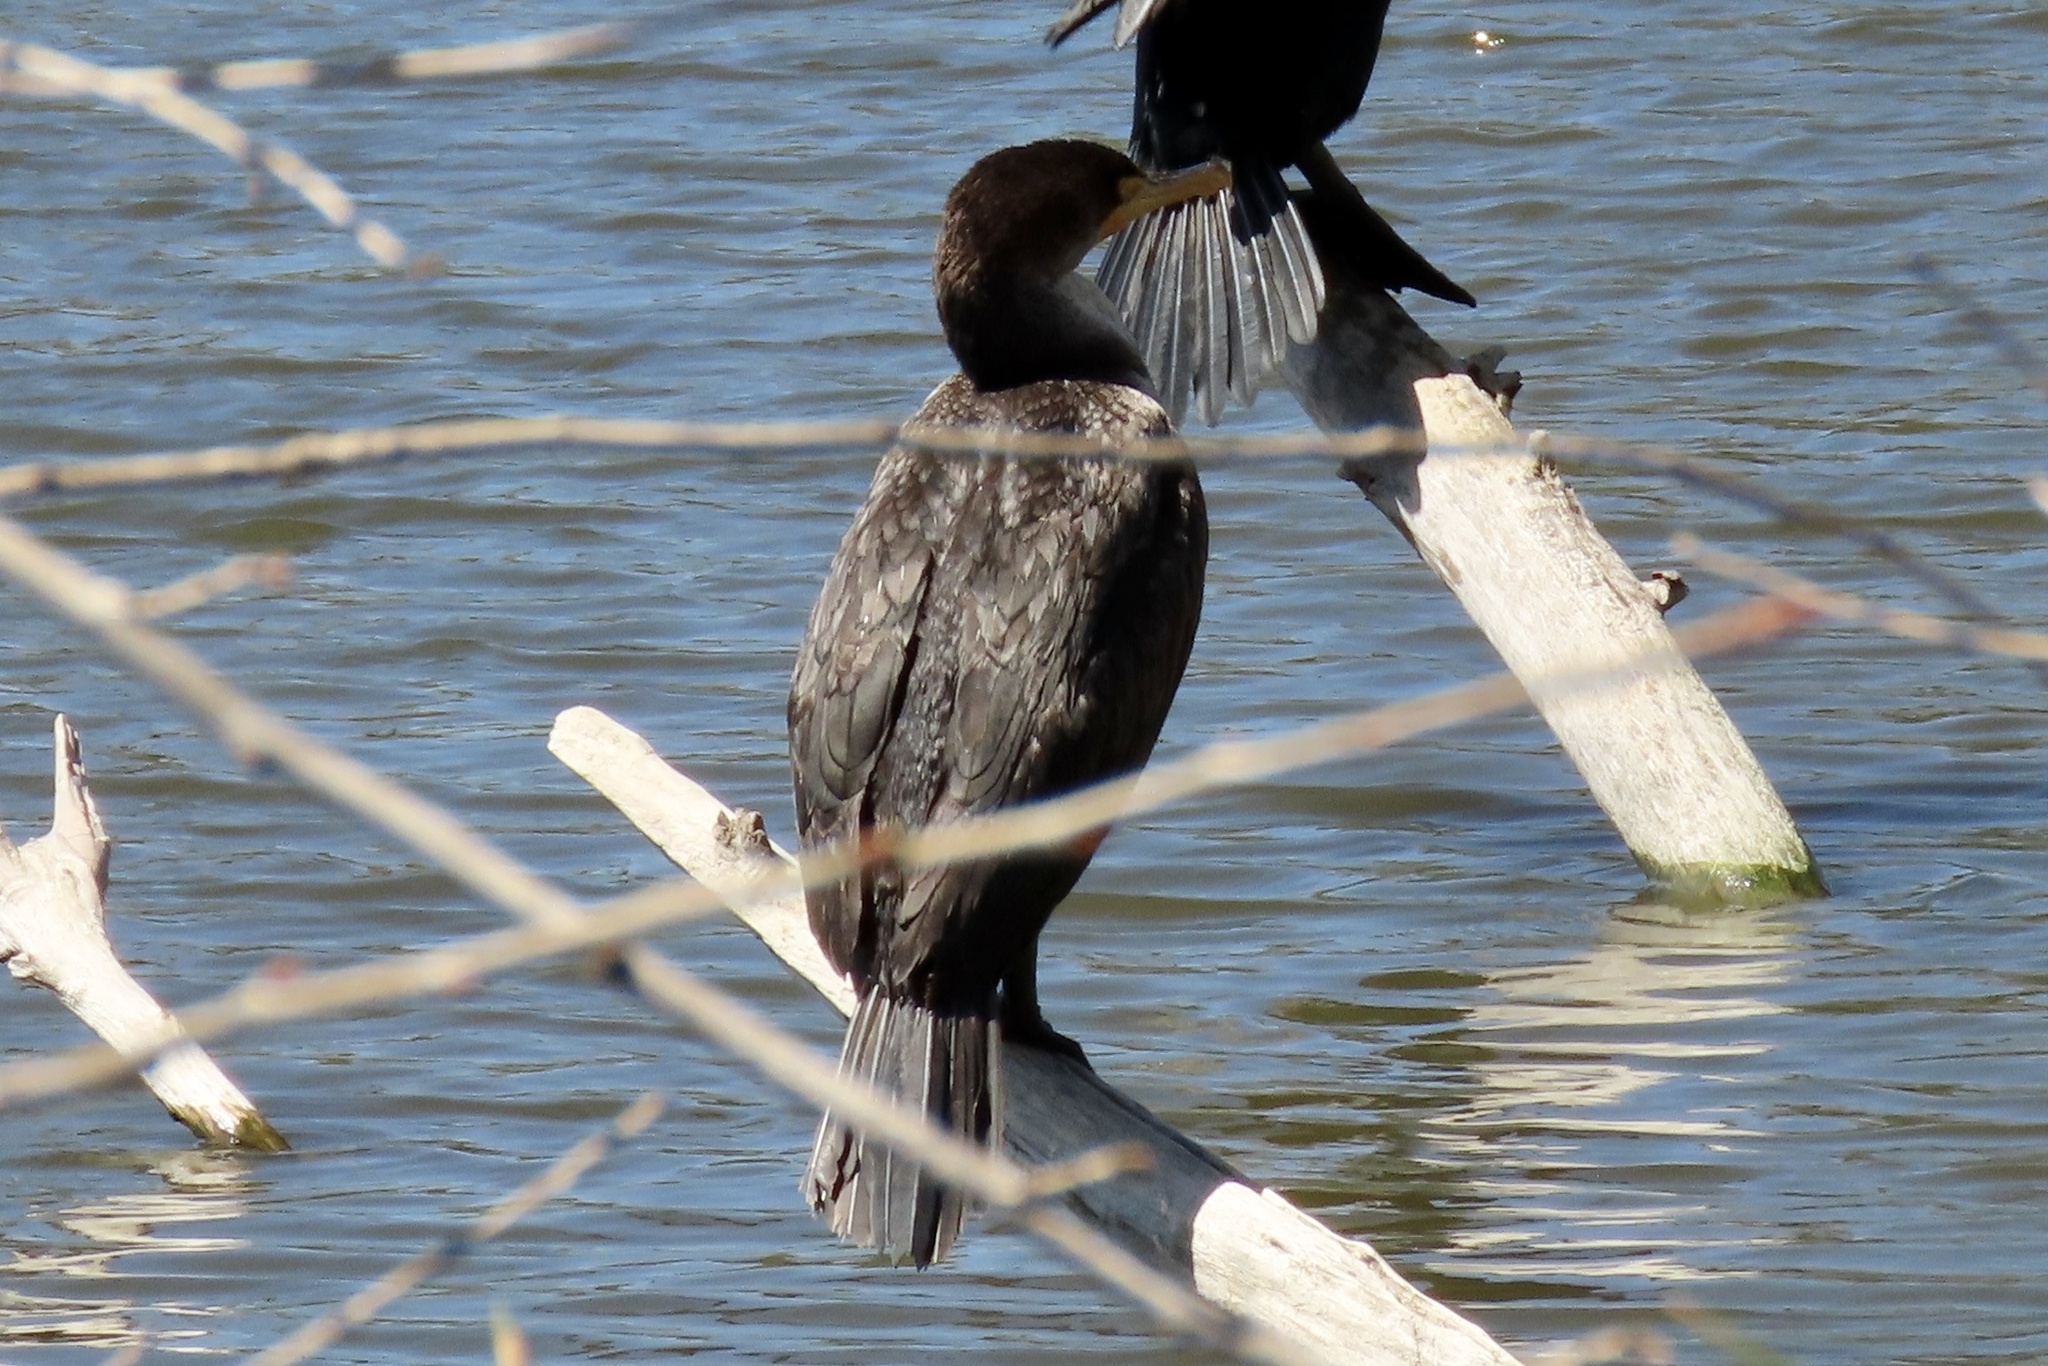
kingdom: Animalia
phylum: Chordata
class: Aves
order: Suliformes
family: Phalacrocoracidae
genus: Phalacrocorax
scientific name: Phalacrocorax auritus
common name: Double-crested cormorant
